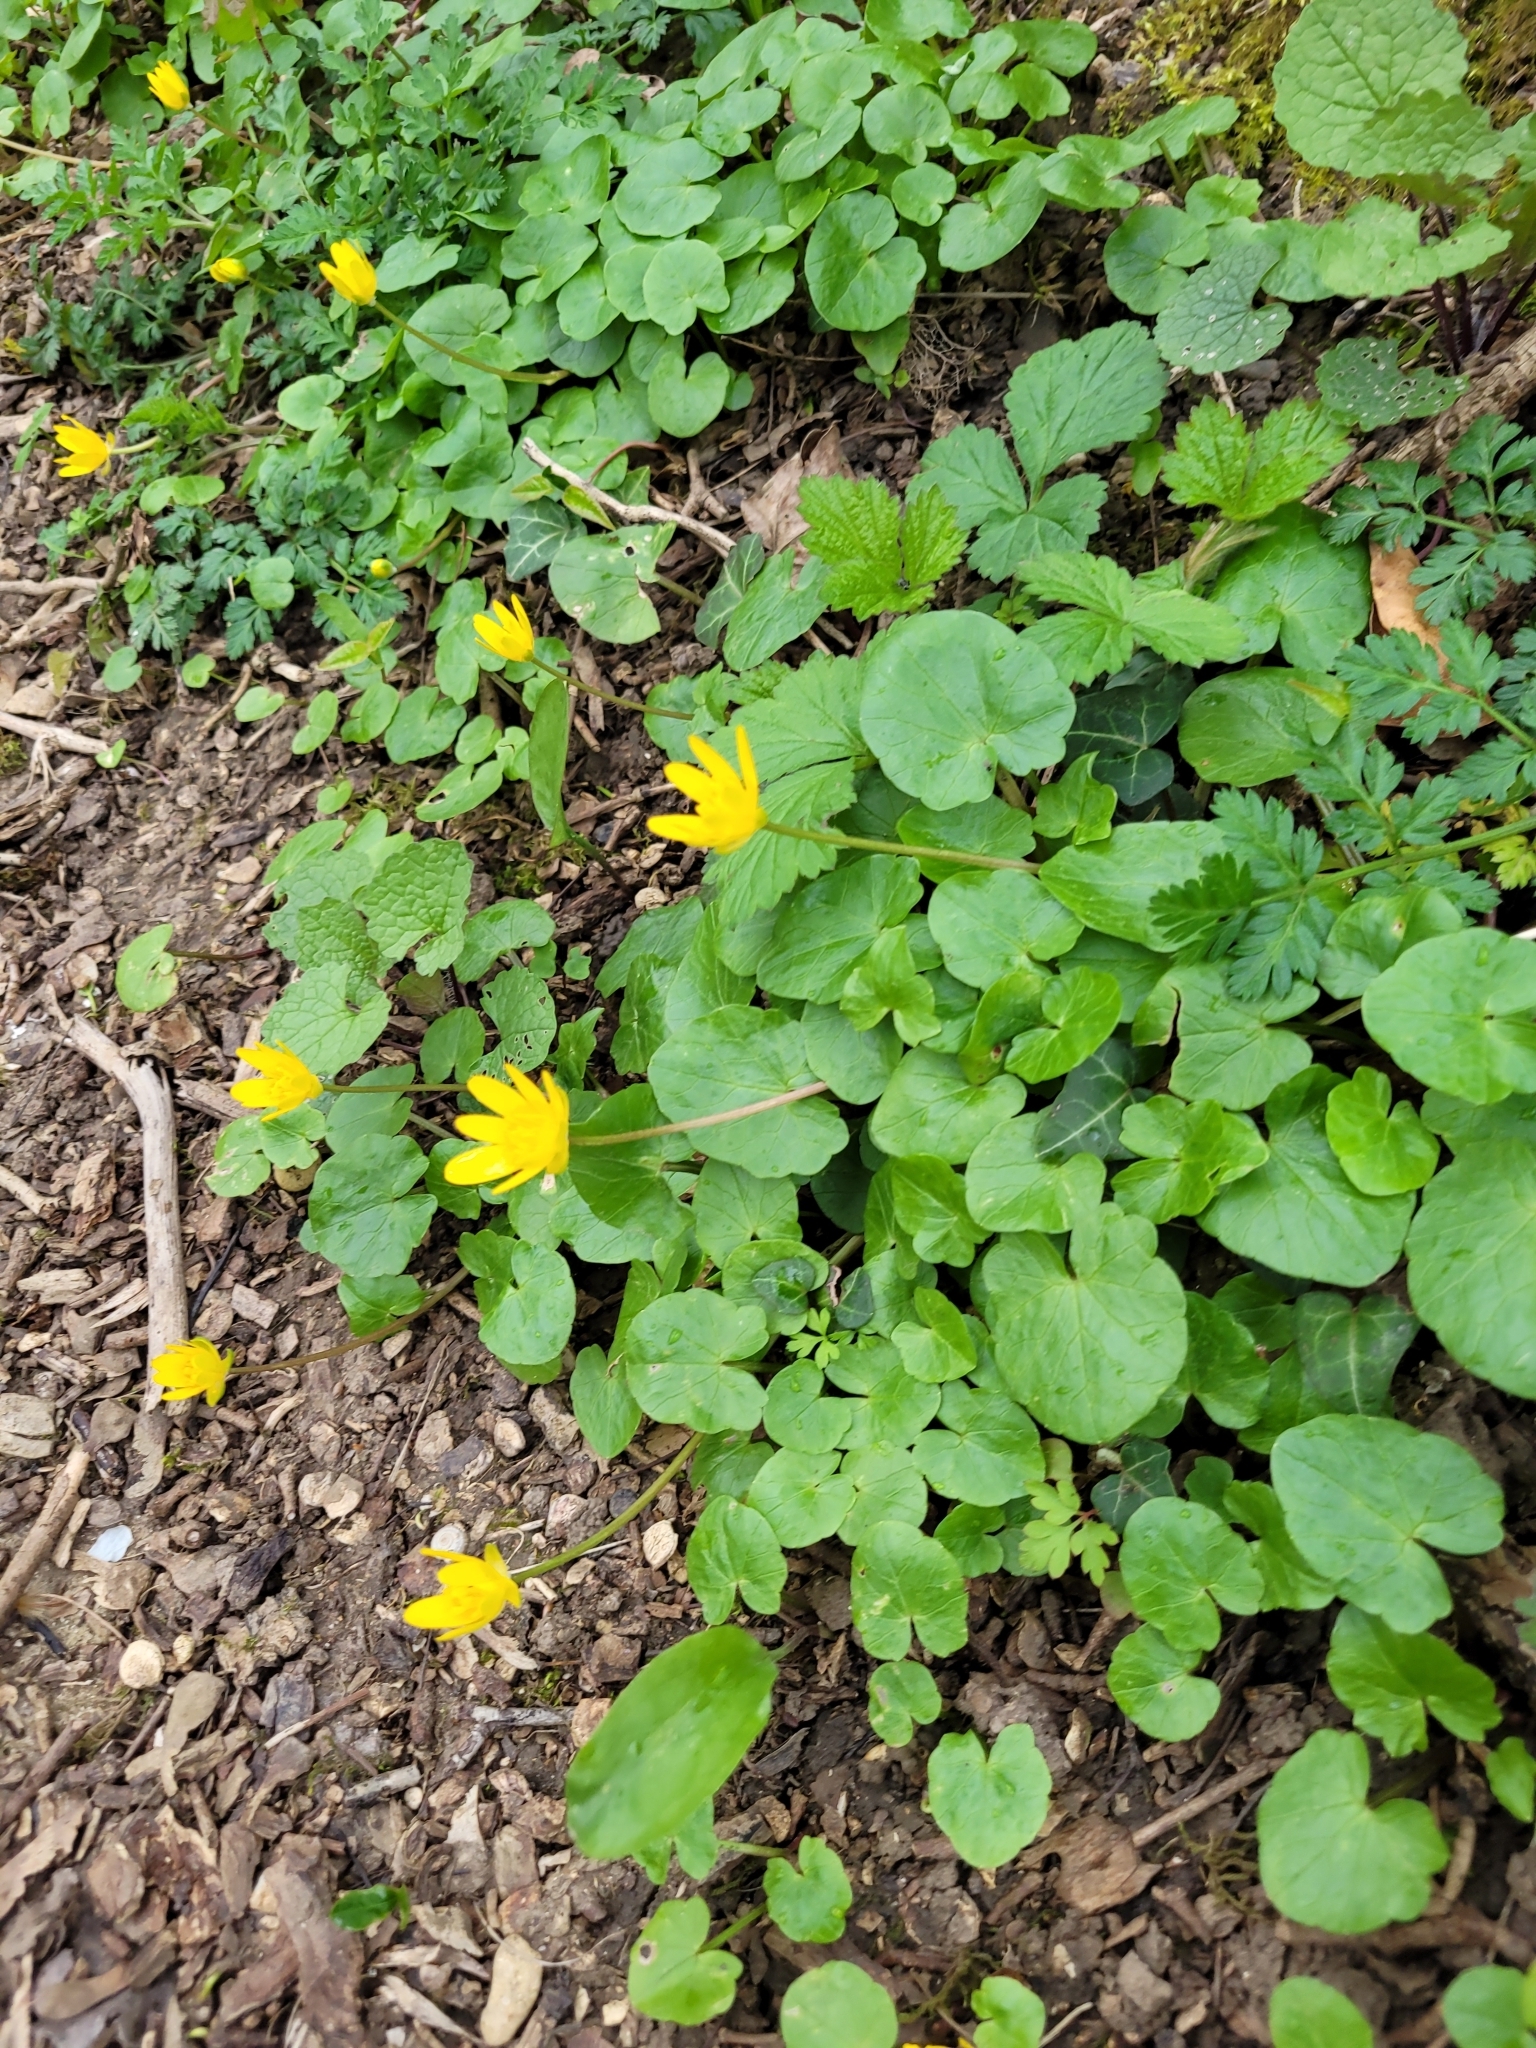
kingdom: Plantae
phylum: Tracheophyta
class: Magnoliopsida
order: Ranunculales
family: Ranunculaceae
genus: Ficaria
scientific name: Ficaria verna
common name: Lesser celandine
